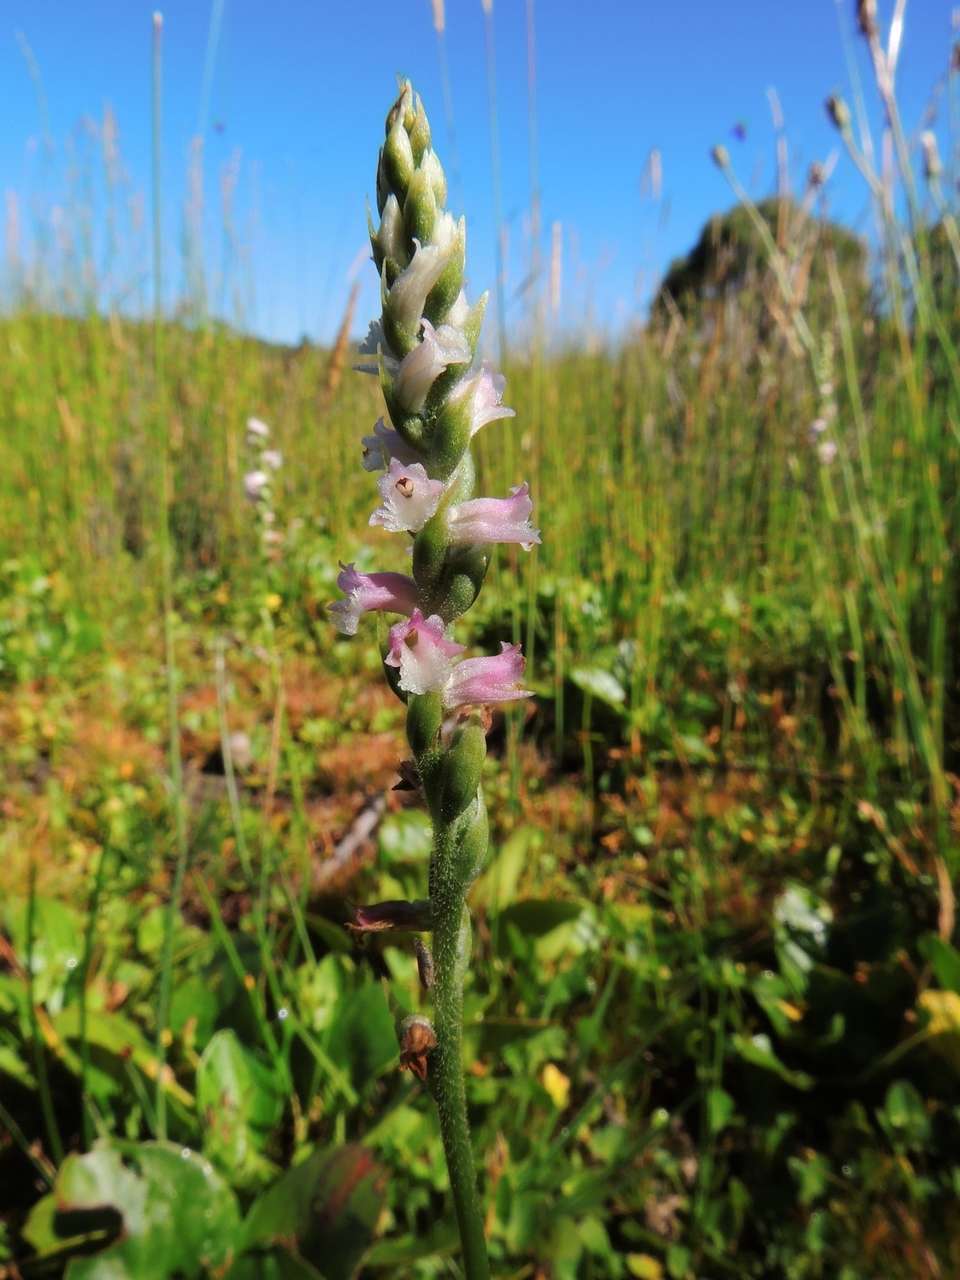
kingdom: Plantae
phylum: Tracheophyta
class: Liliopsida
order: Asparagales
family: Orchidaceae
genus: Spiranthes
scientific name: Spiranthes australis
